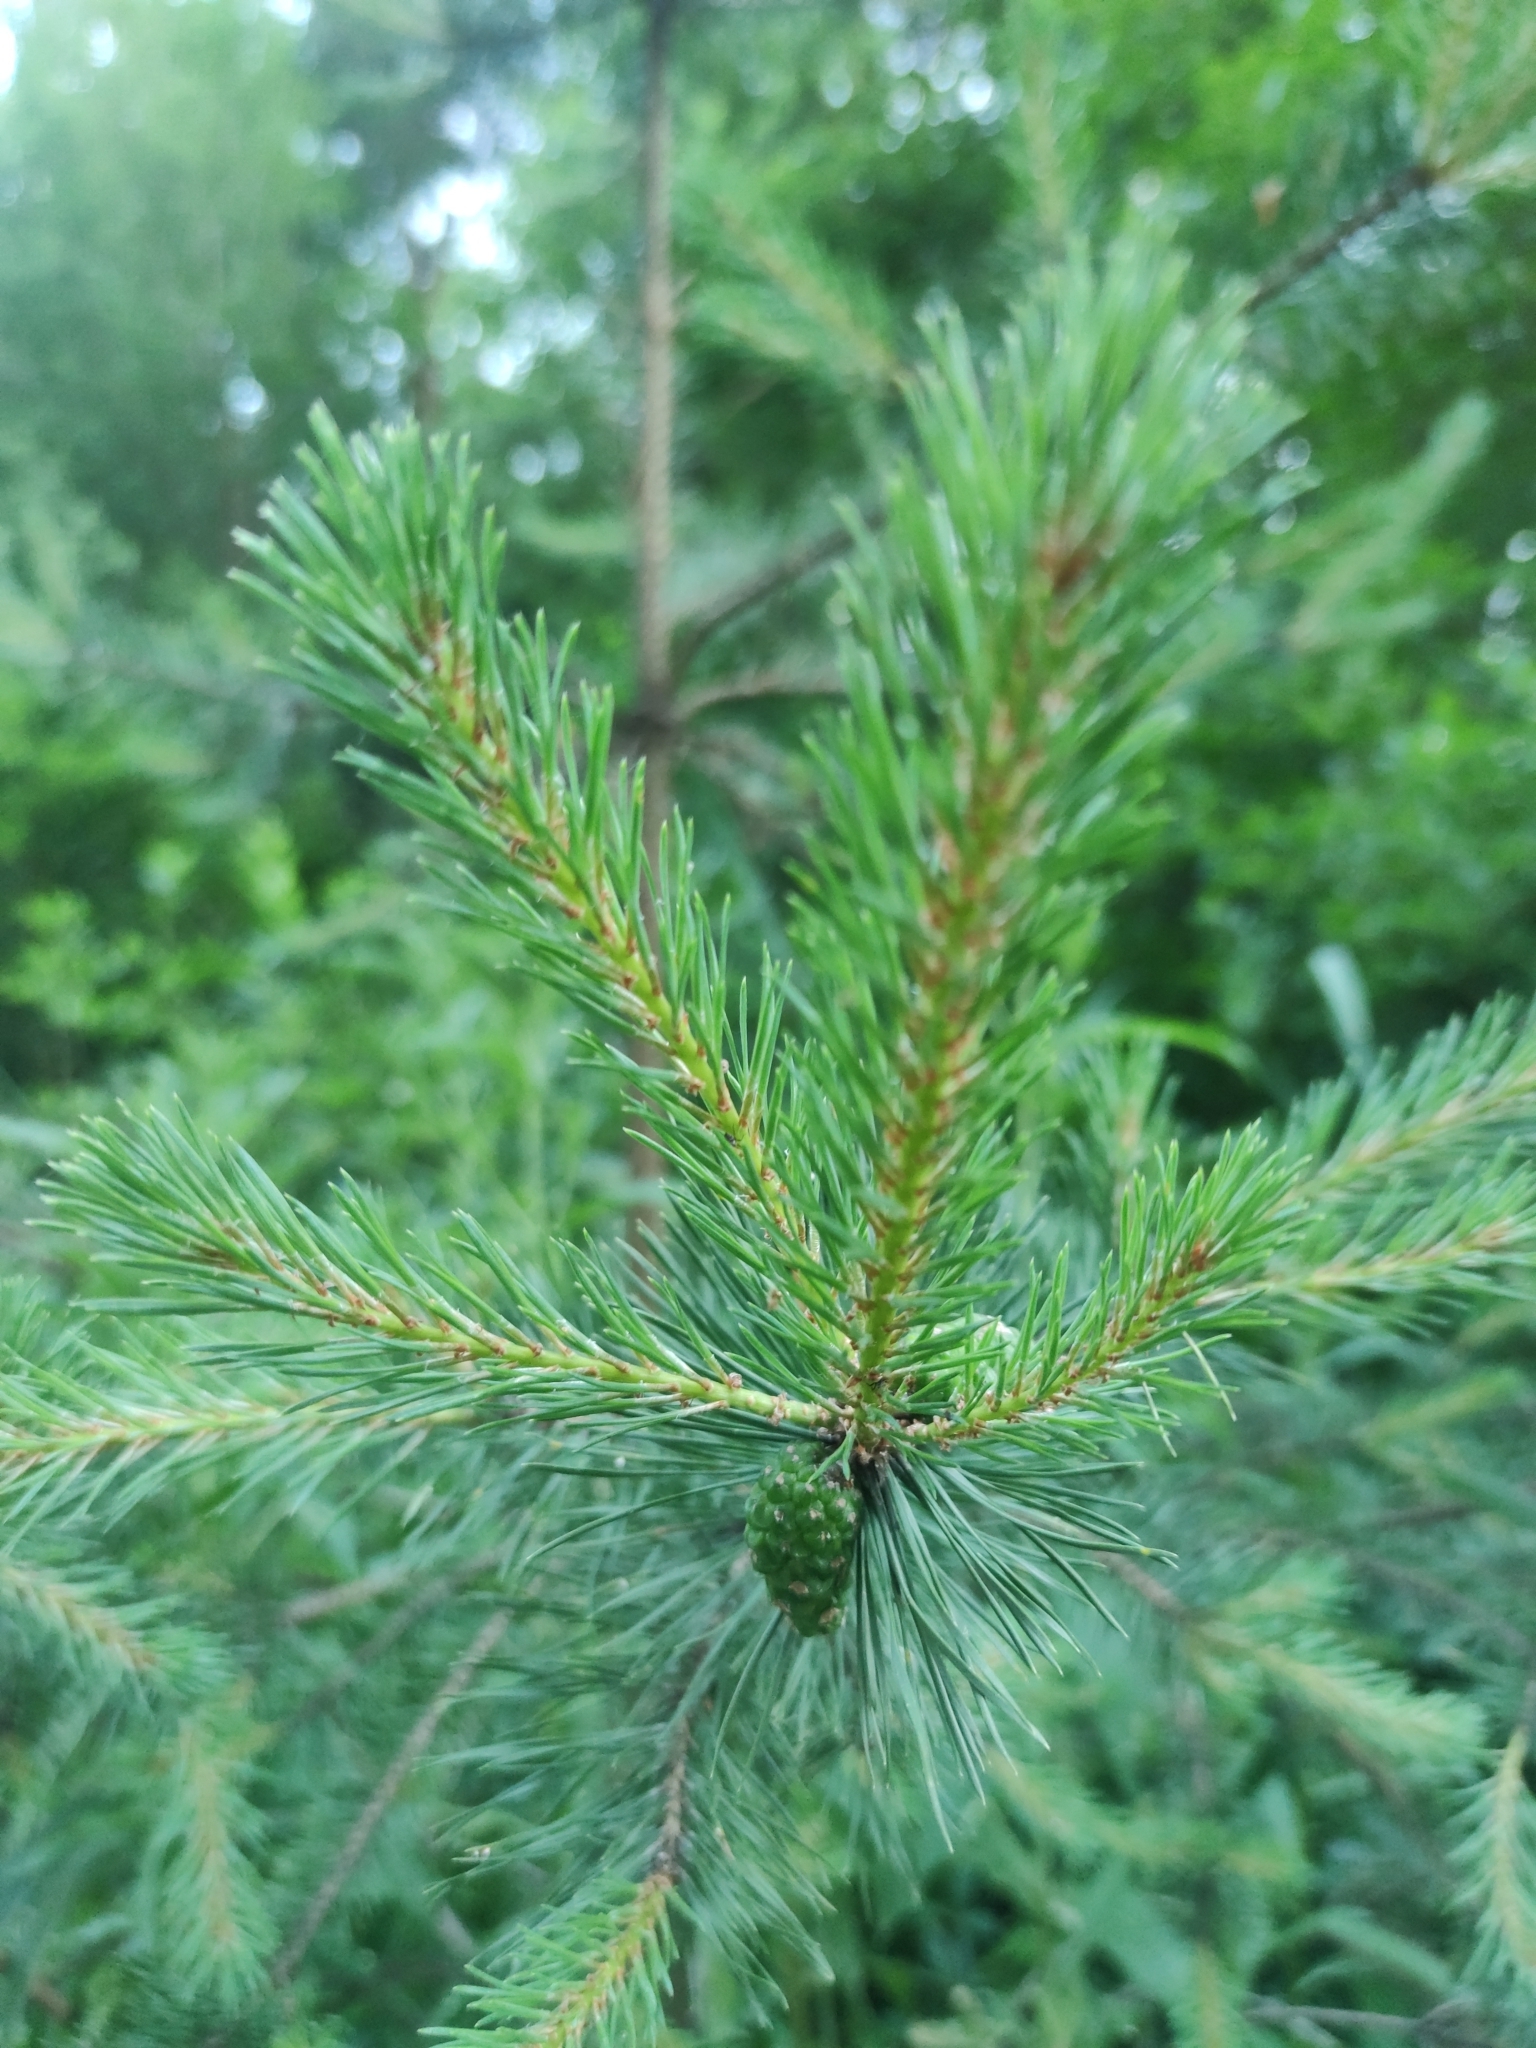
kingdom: Plantae
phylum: Tracheophyta
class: Pinopsida
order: Pinales
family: Pinaceae
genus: Pinus
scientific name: Pinus sylvestris
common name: Scots pine
